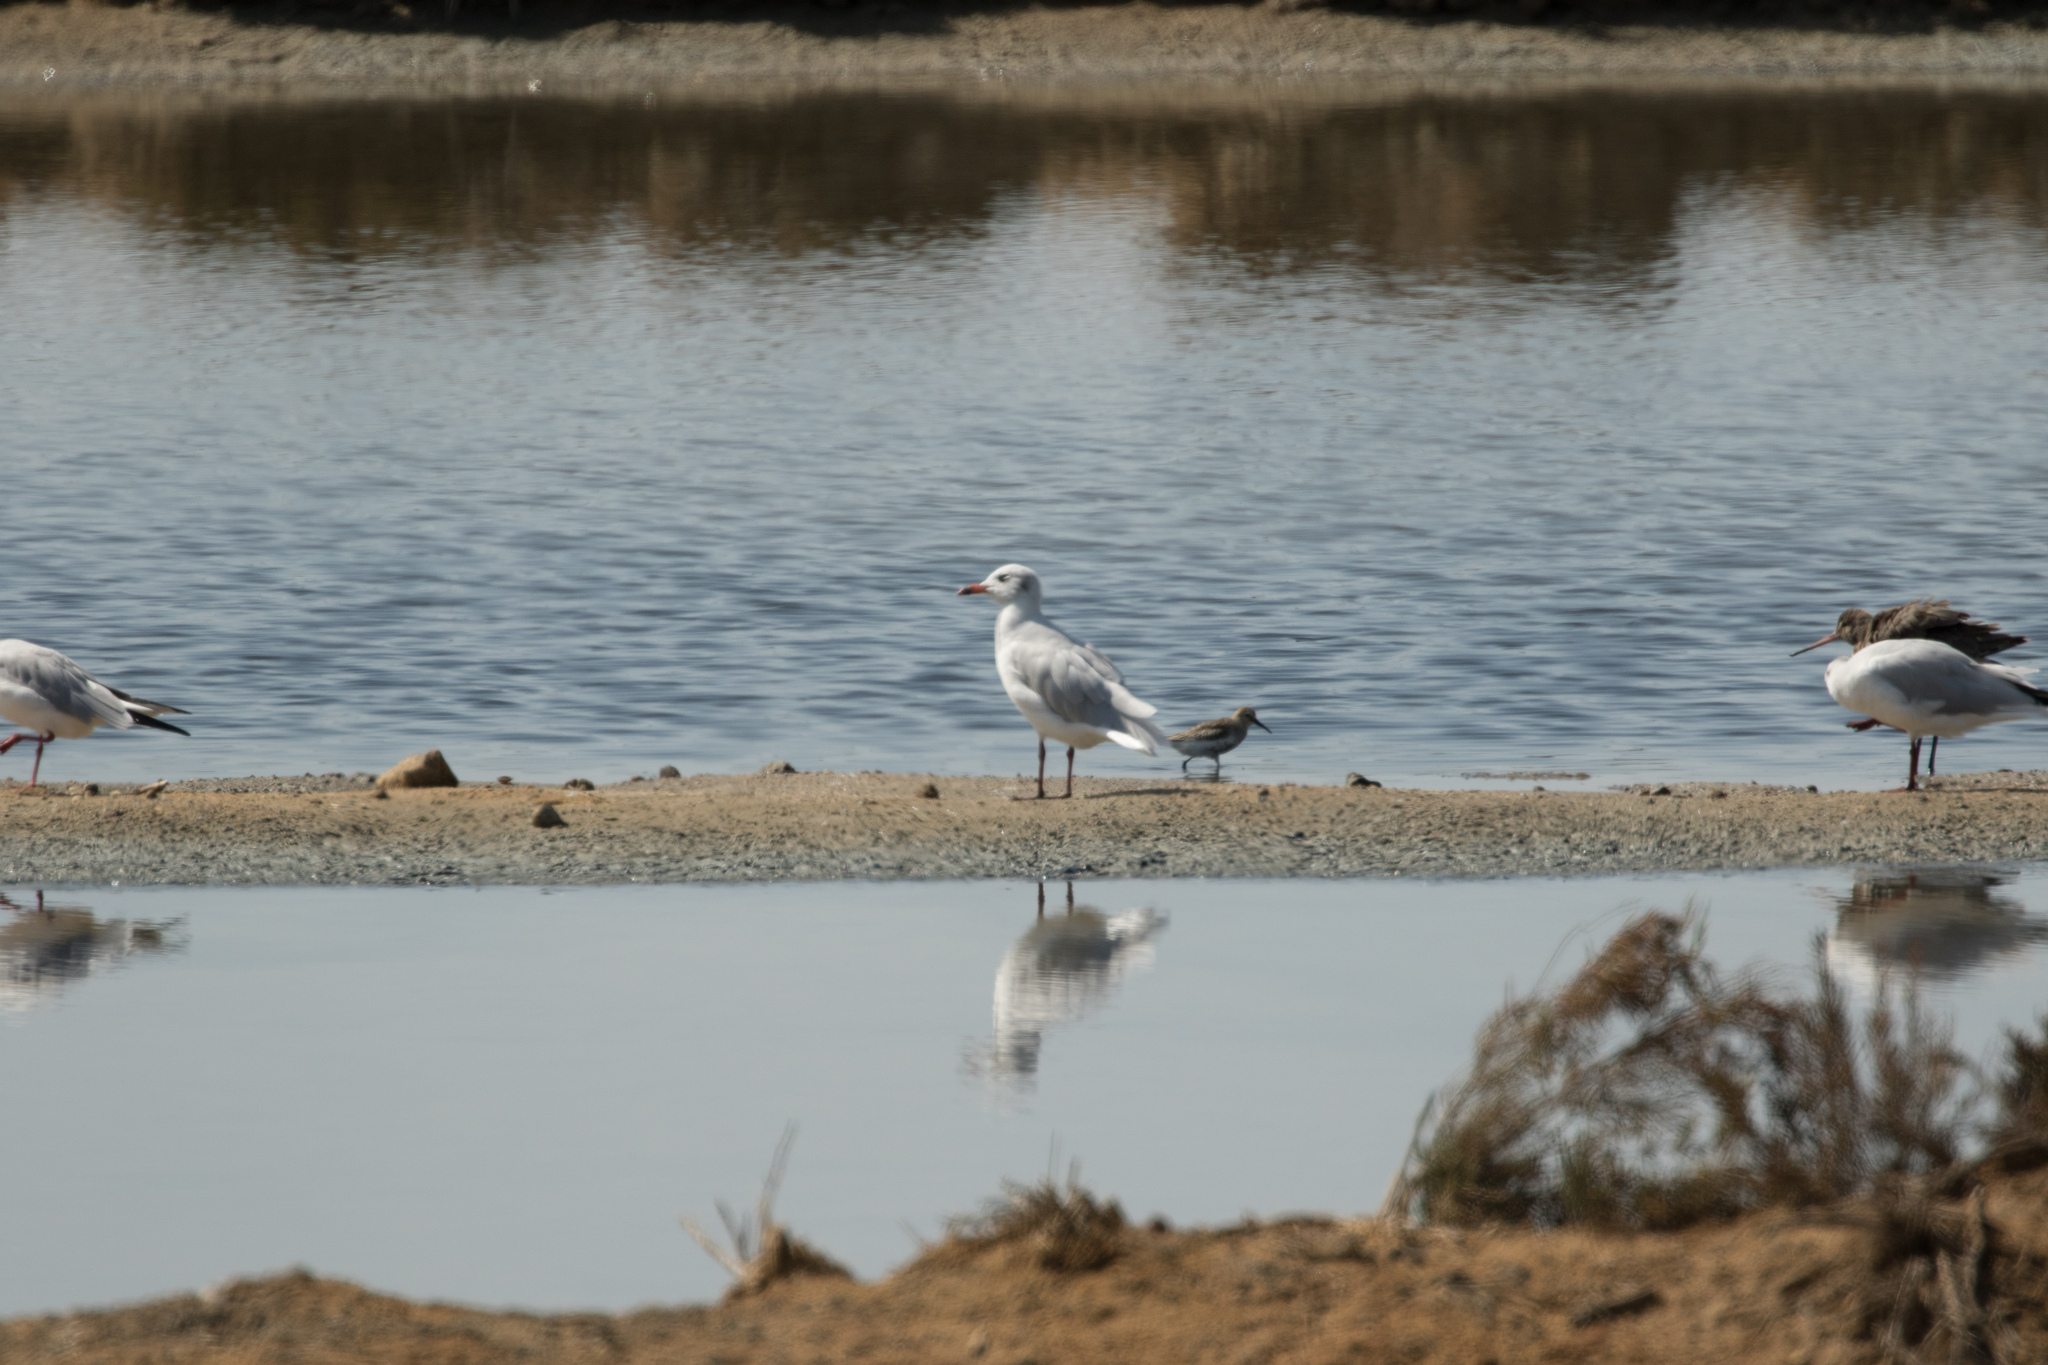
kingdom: Animalia
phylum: Chordata
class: Aves
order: Charadriiformes
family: Laridae
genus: Ichthyaetus
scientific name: Ichthyaetus melanocephalus
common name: Mediterranean gull
